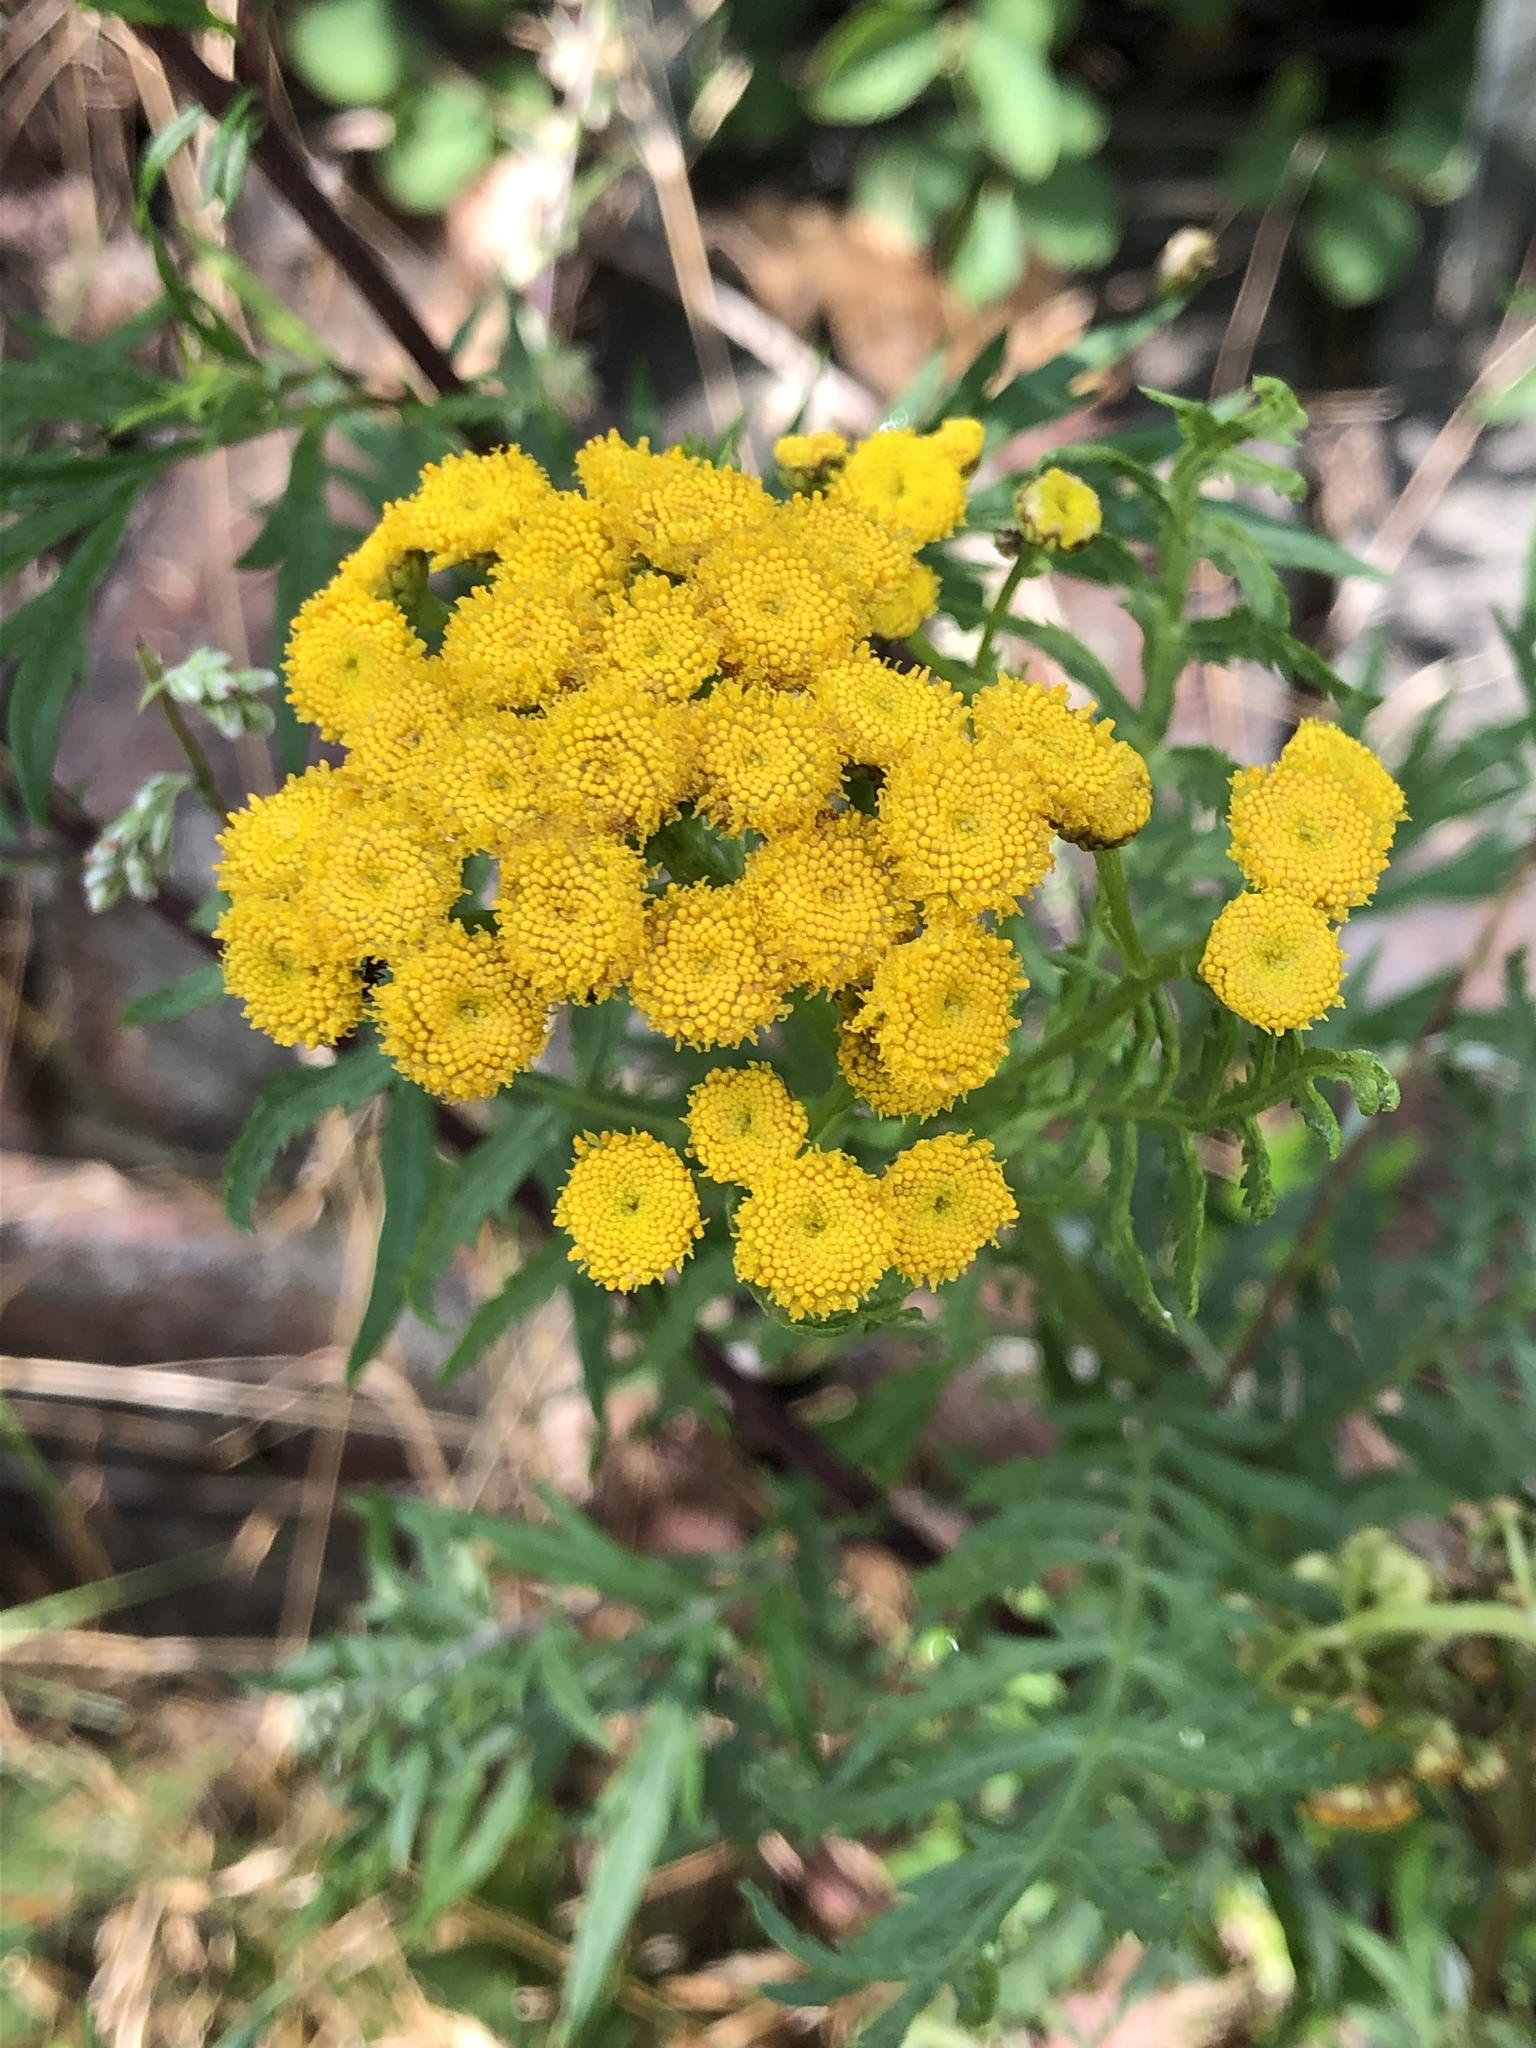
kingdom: Plantae
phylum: Tracheophyta
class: Magnoliopsida
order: Asterales
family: Asteraceae
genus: Tanacetum
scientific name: Tanacetum vulgare
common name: Common tansy
